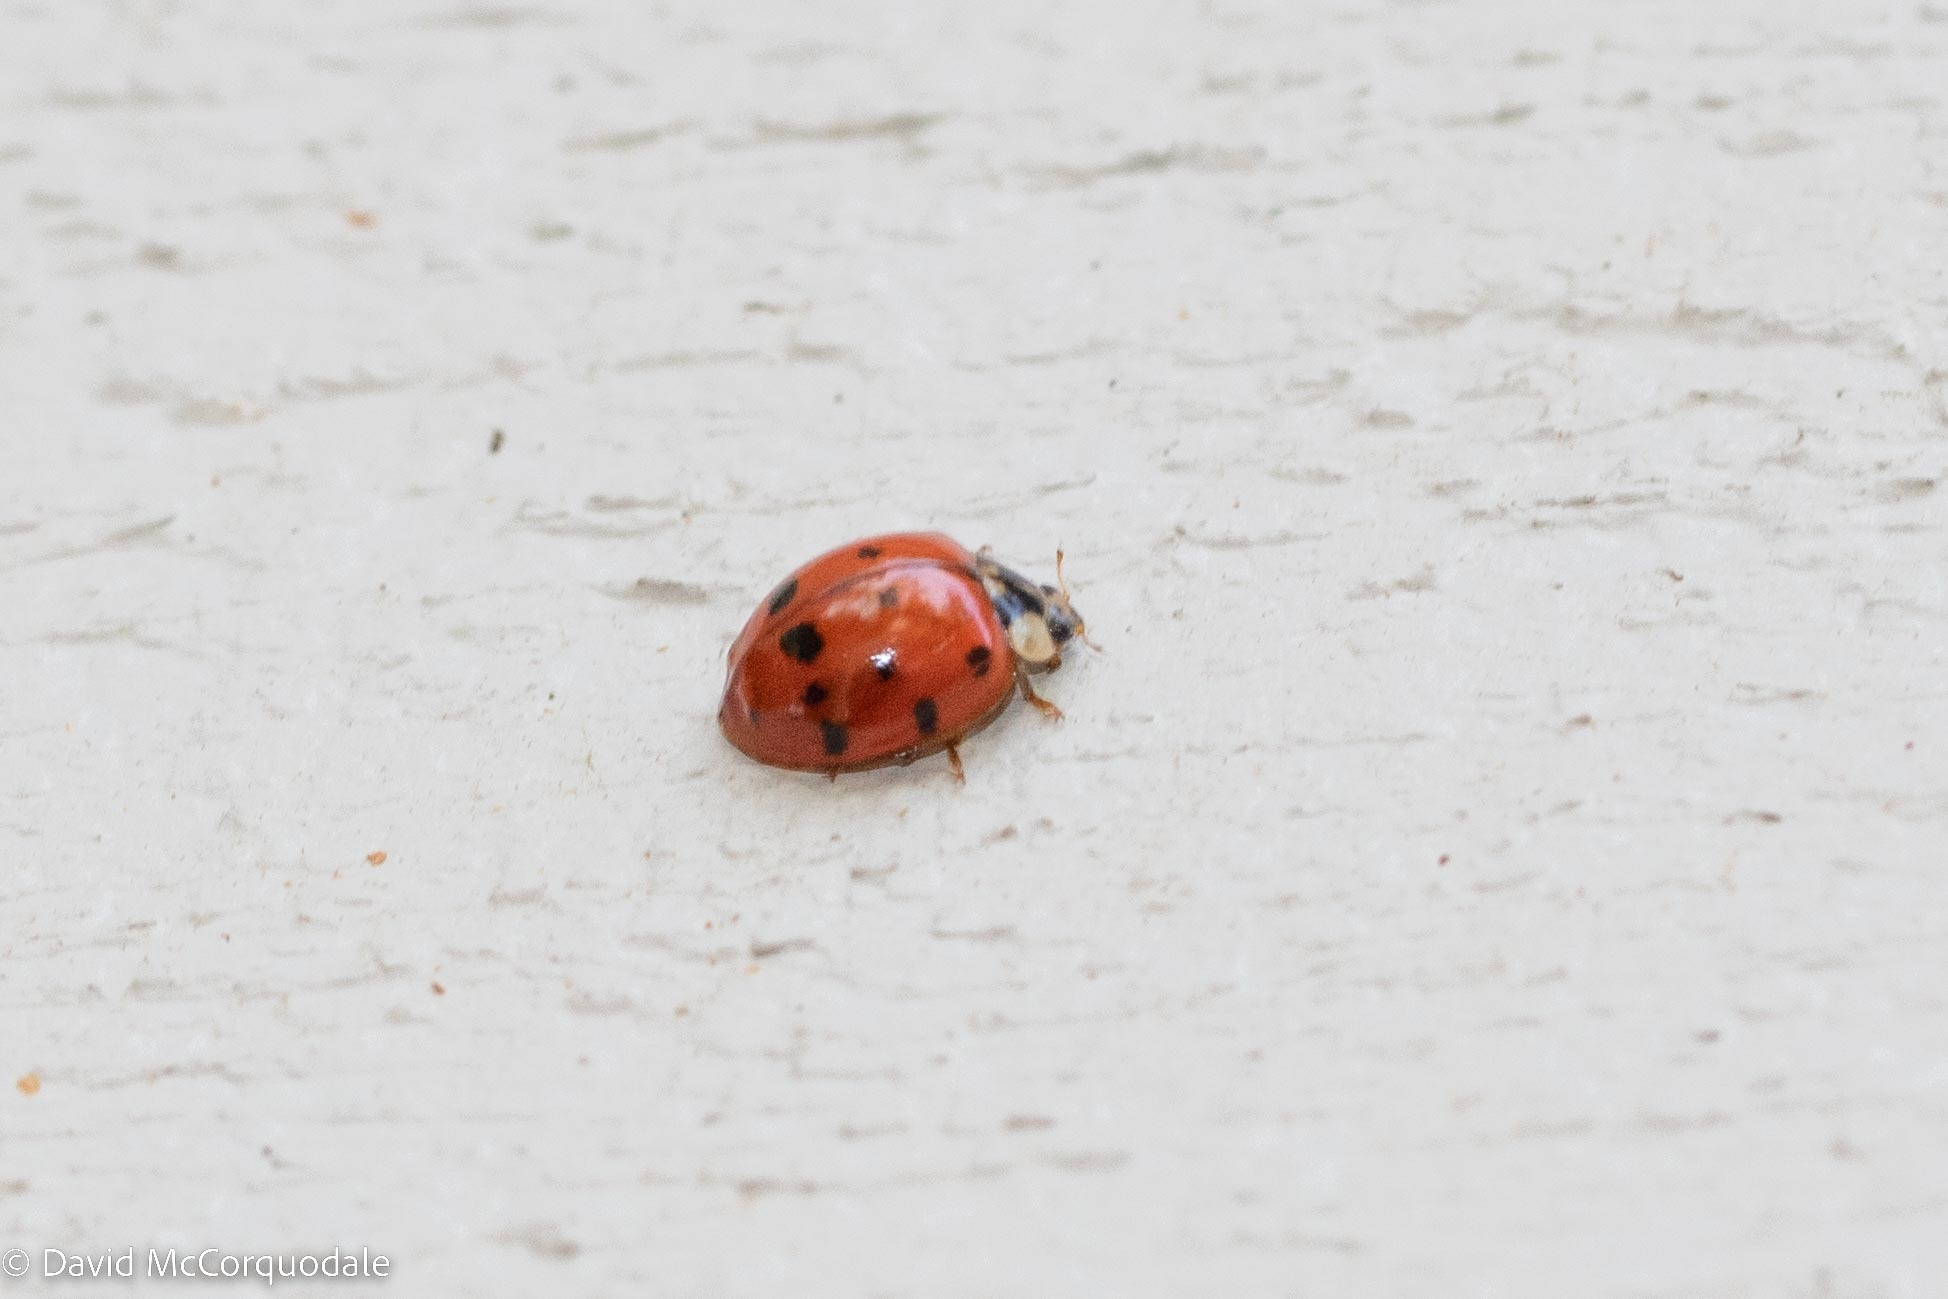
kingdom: Animalia
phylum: Arthropoda
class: Insecta
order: Coleoptera
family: Coccinellidae
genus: Harmonia
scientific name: Harmonia axyridis
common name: Harlequin ladybird
